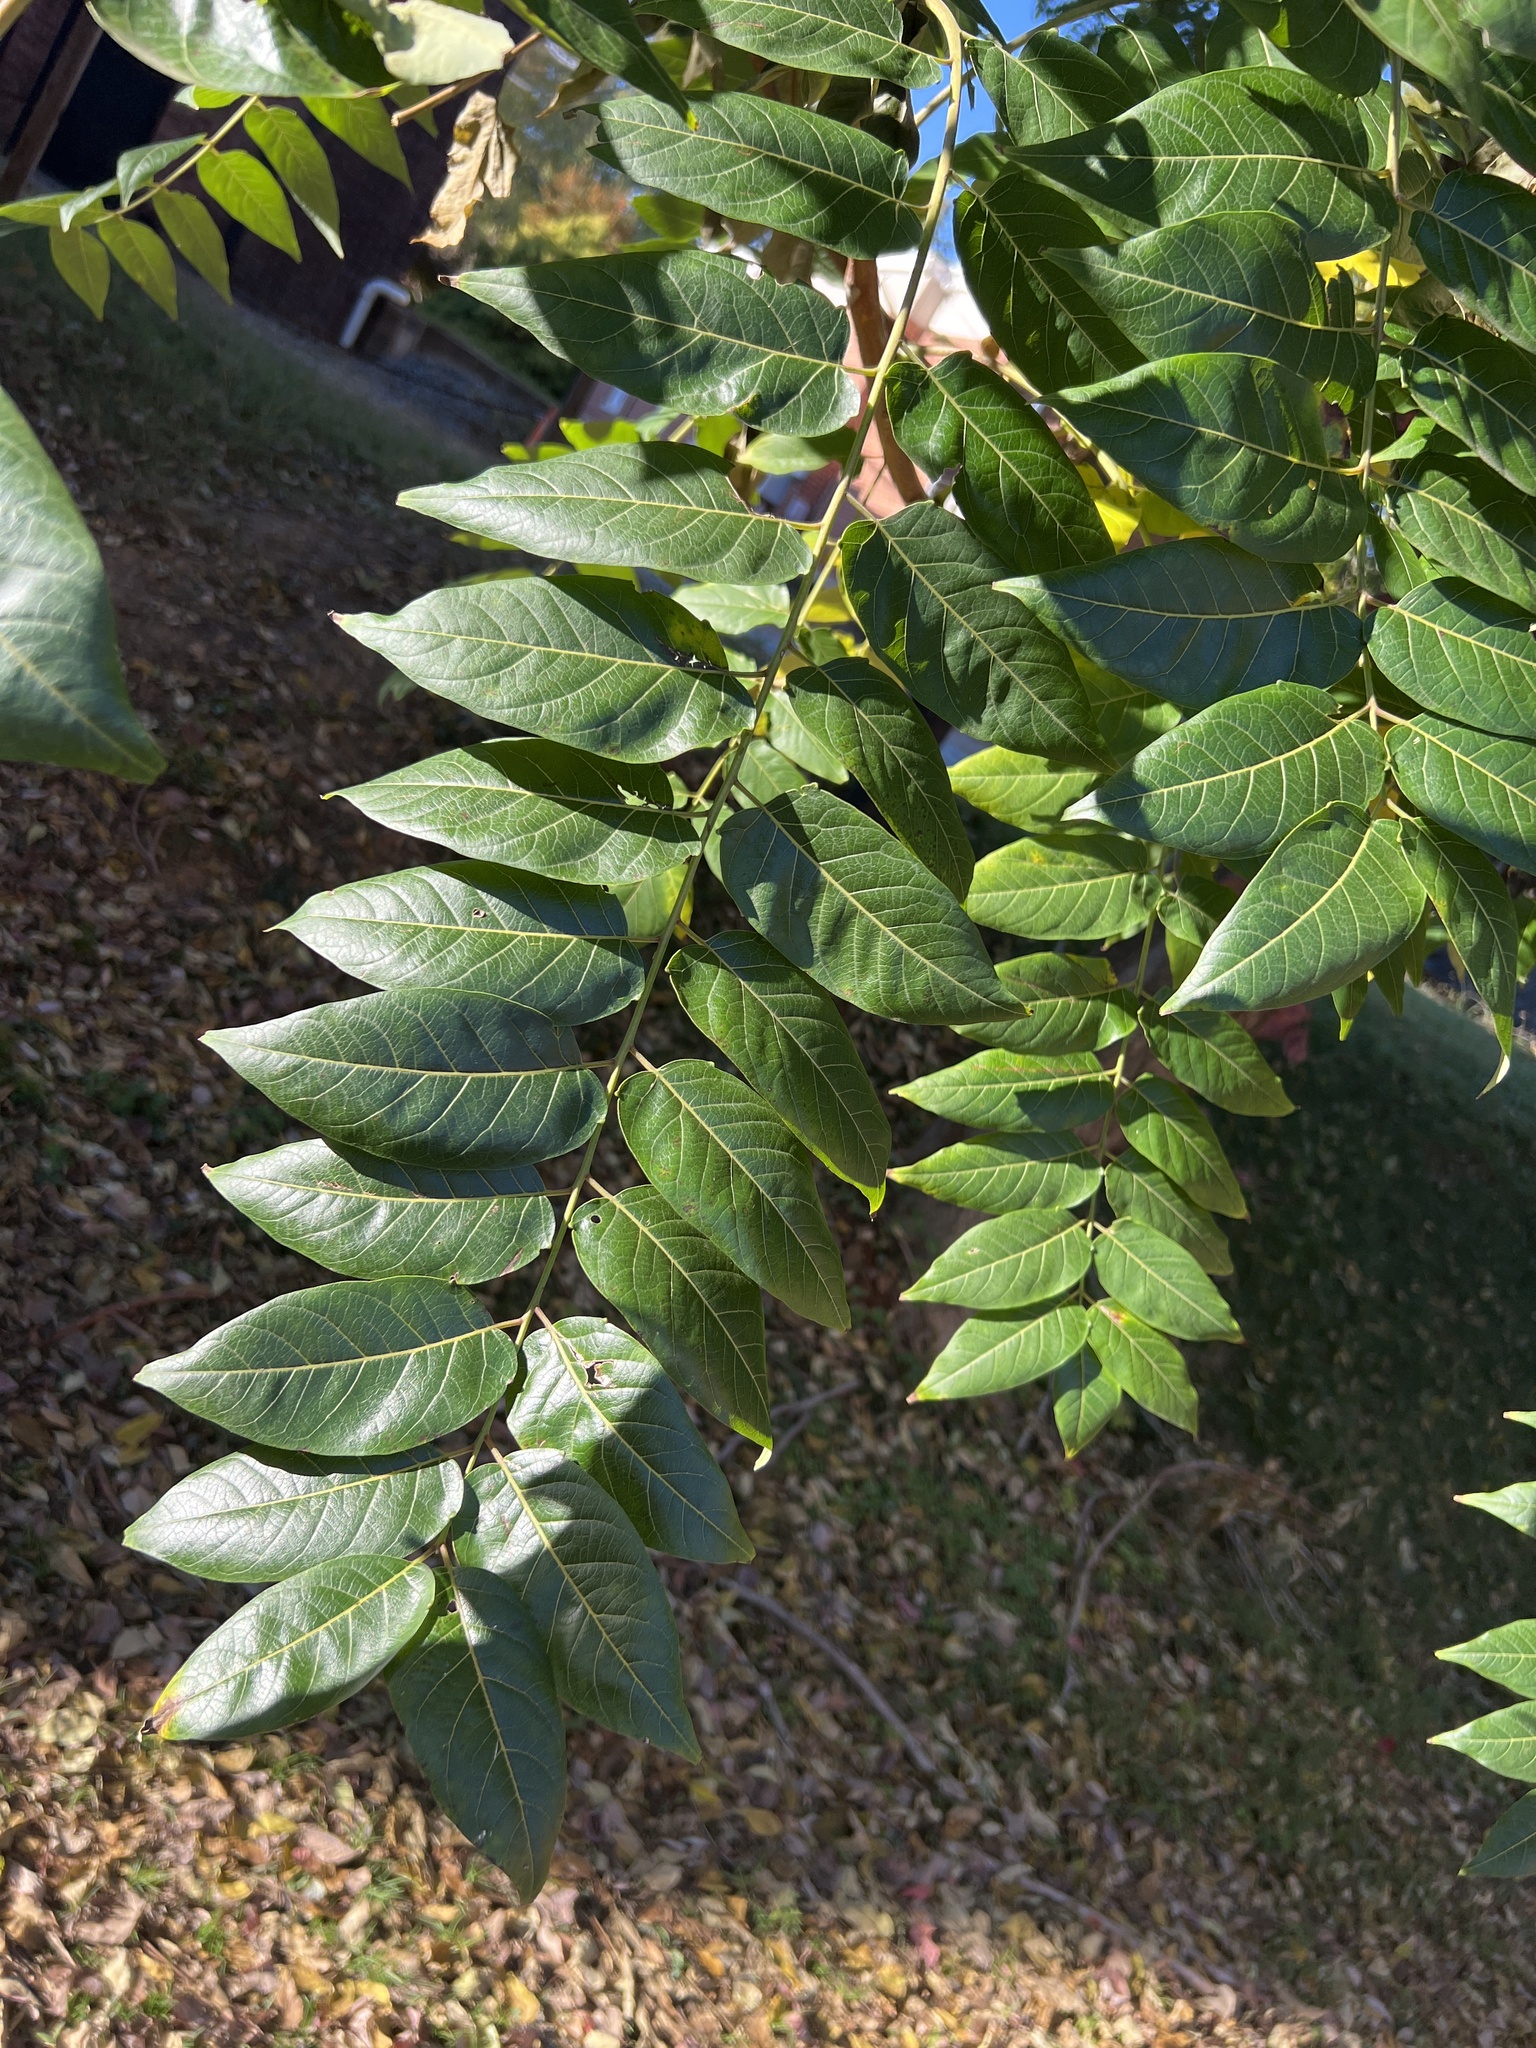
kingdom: Plantae
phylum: Tracheophyta
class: Magnoliopsida
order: Sapindales
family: Simaroubaceae
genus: Ailanthus
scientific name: Ailanthus altissima
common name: Tree-of-heaven
